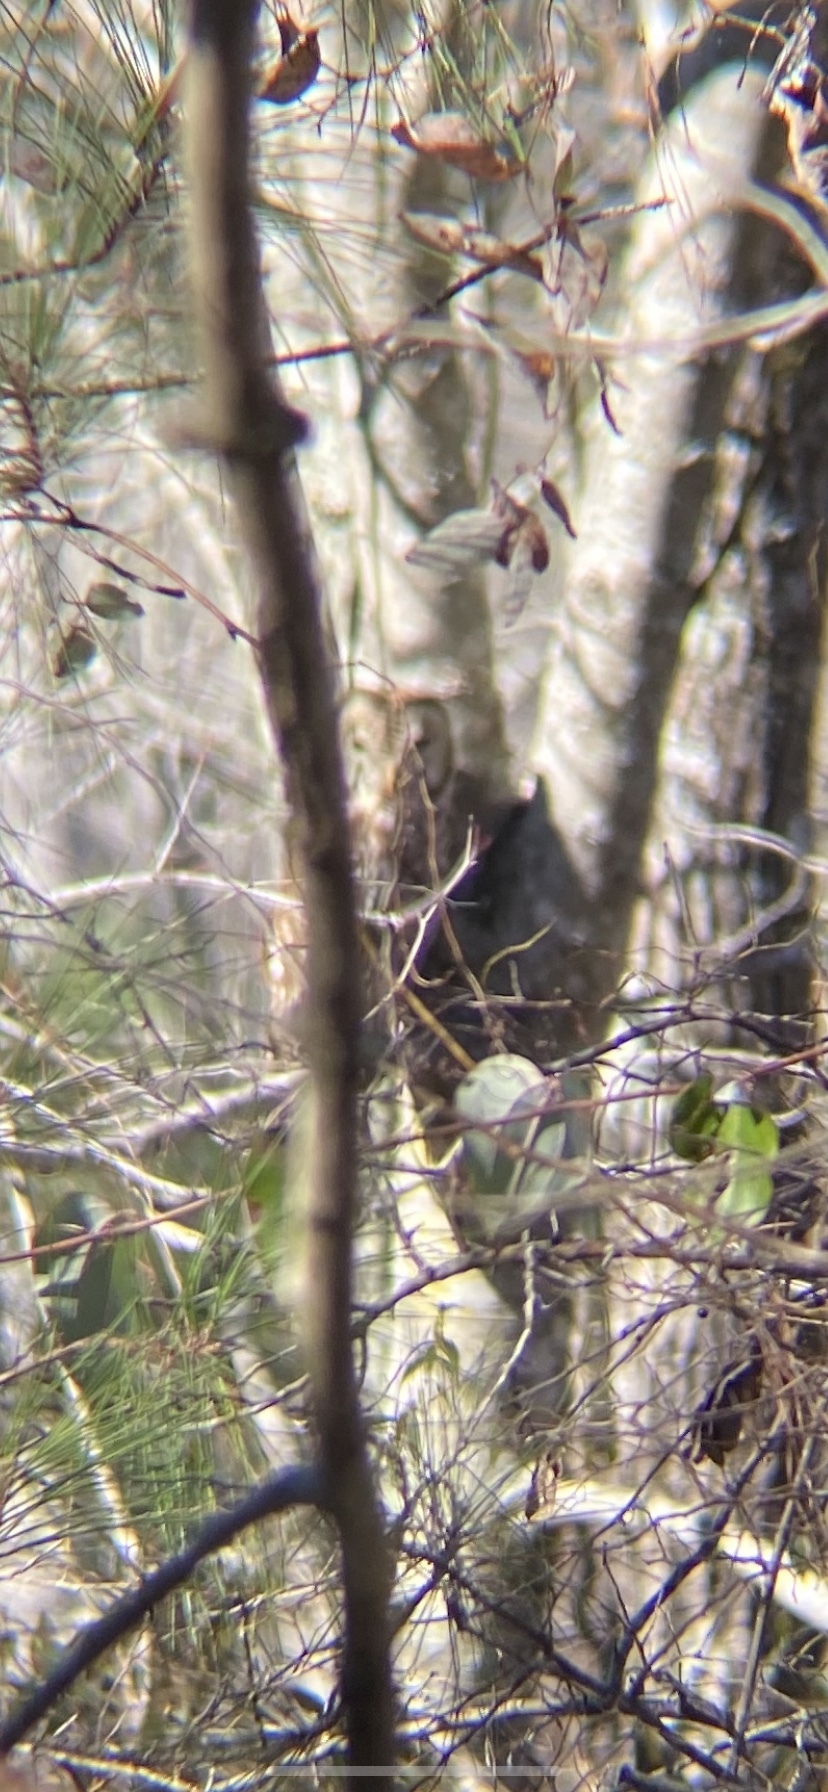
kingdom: Animalia
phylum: Chordata
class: Aves
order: Strigiformes
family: Strigidae
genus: Strix
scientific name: Strix varia
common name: Barred owl
